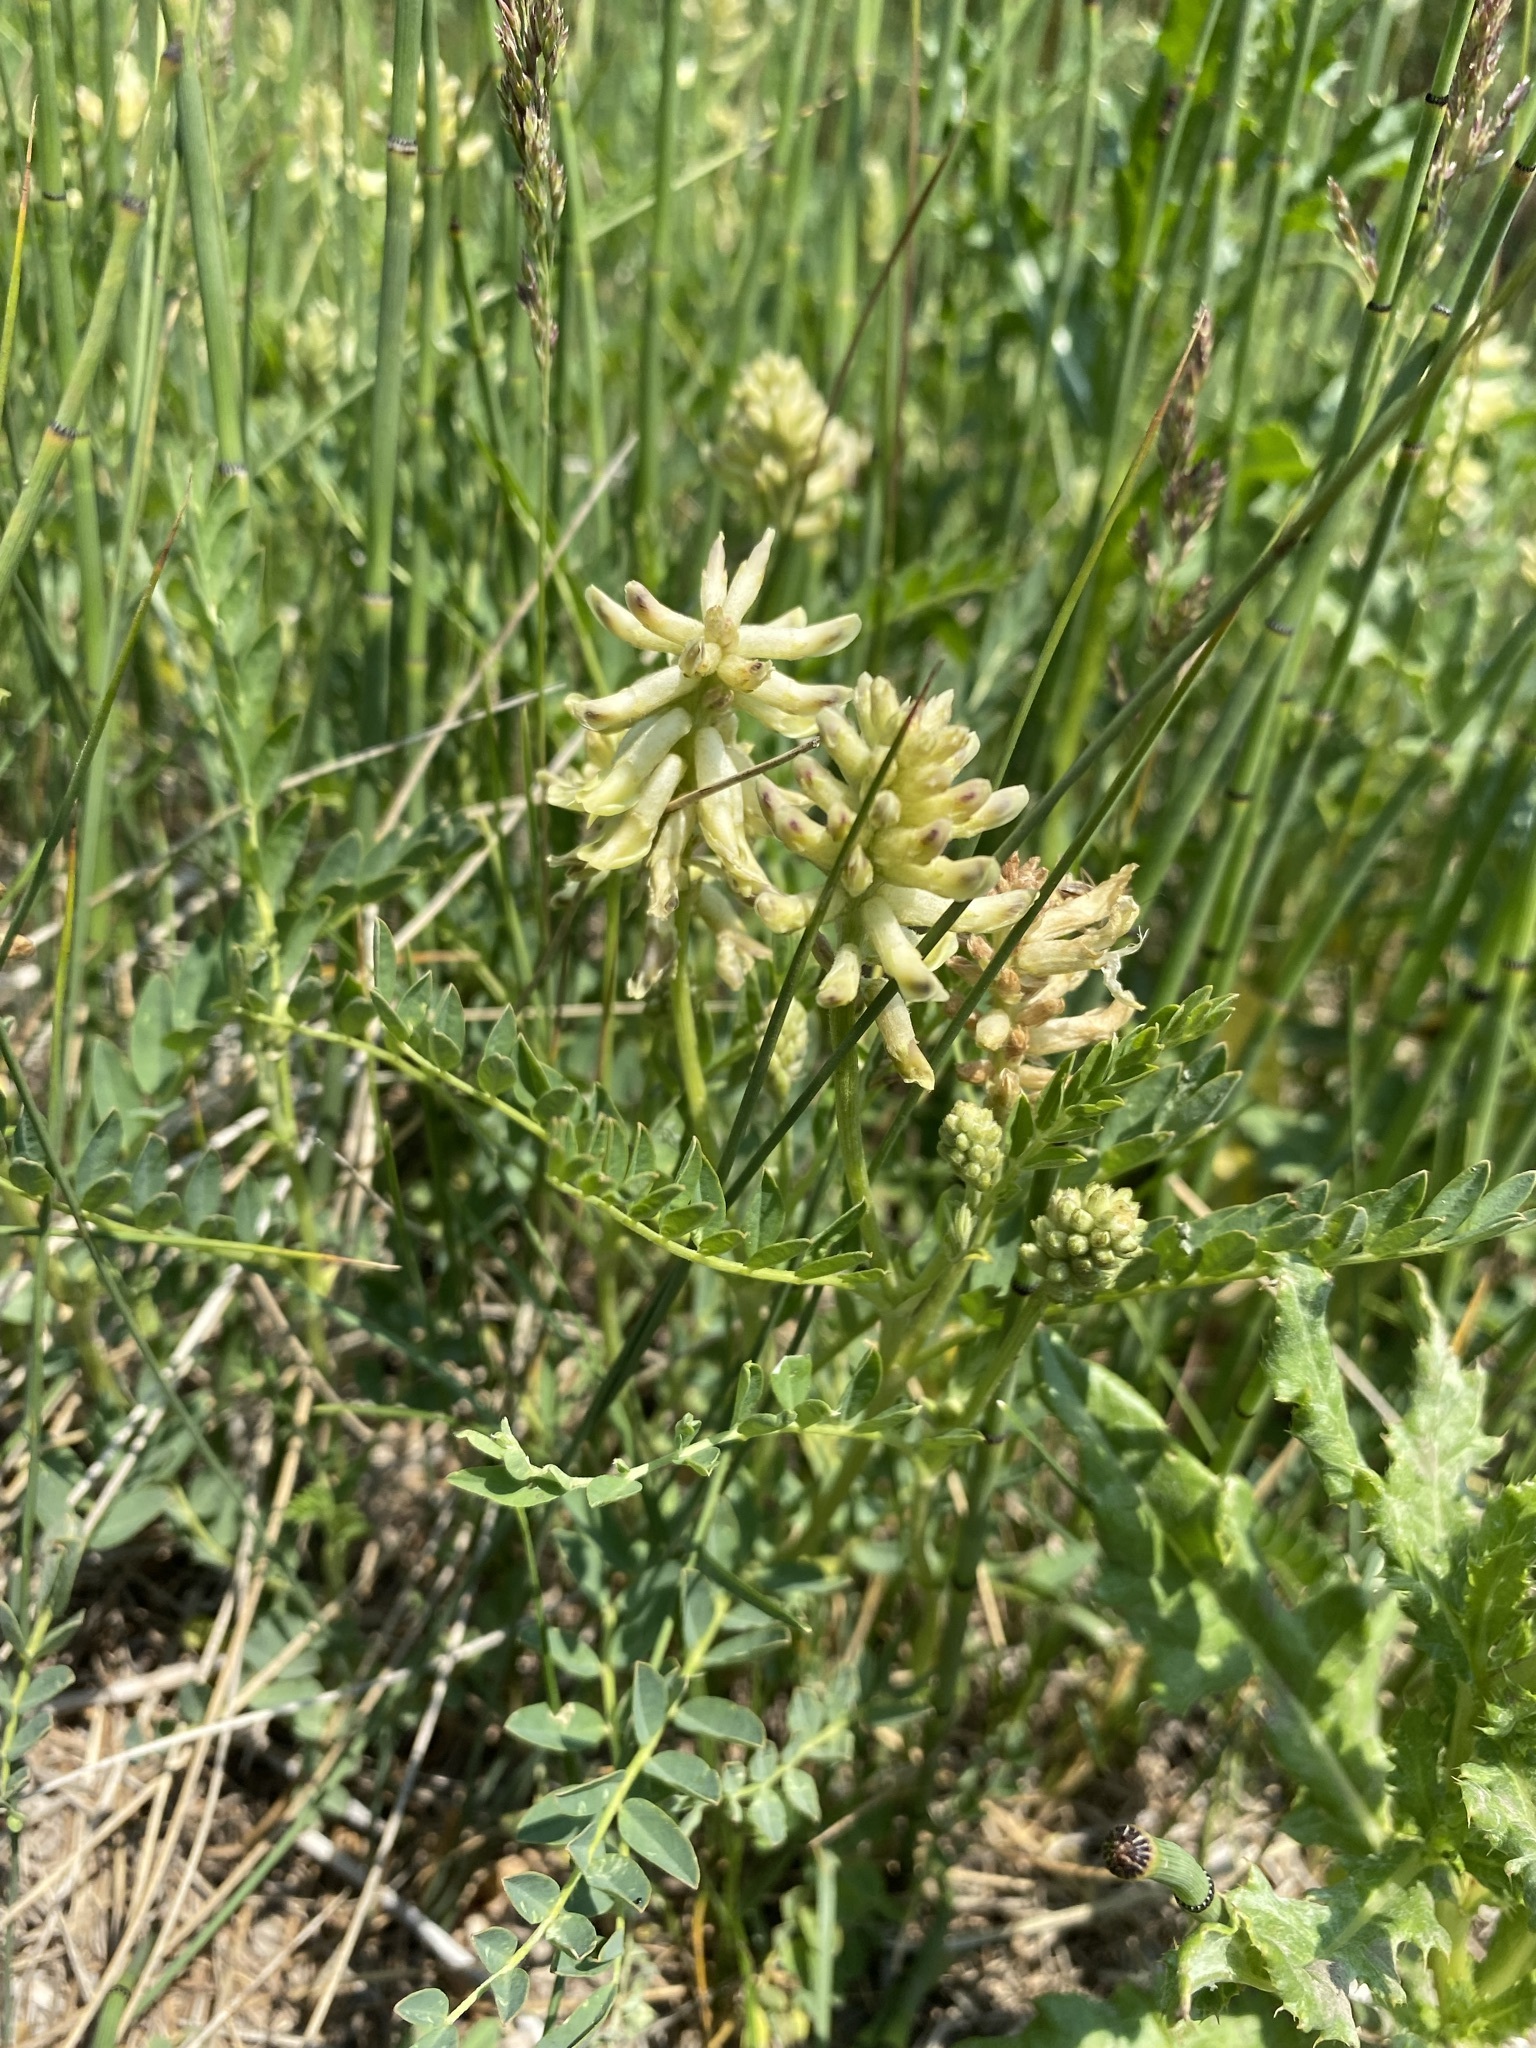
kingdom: Plantae
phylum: Tracheophyta
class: Magnoliopsida
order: Fabales
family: Fabaceae
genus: Astragalus
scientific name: Astragalus canadensis
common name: Canada milk-vetch
